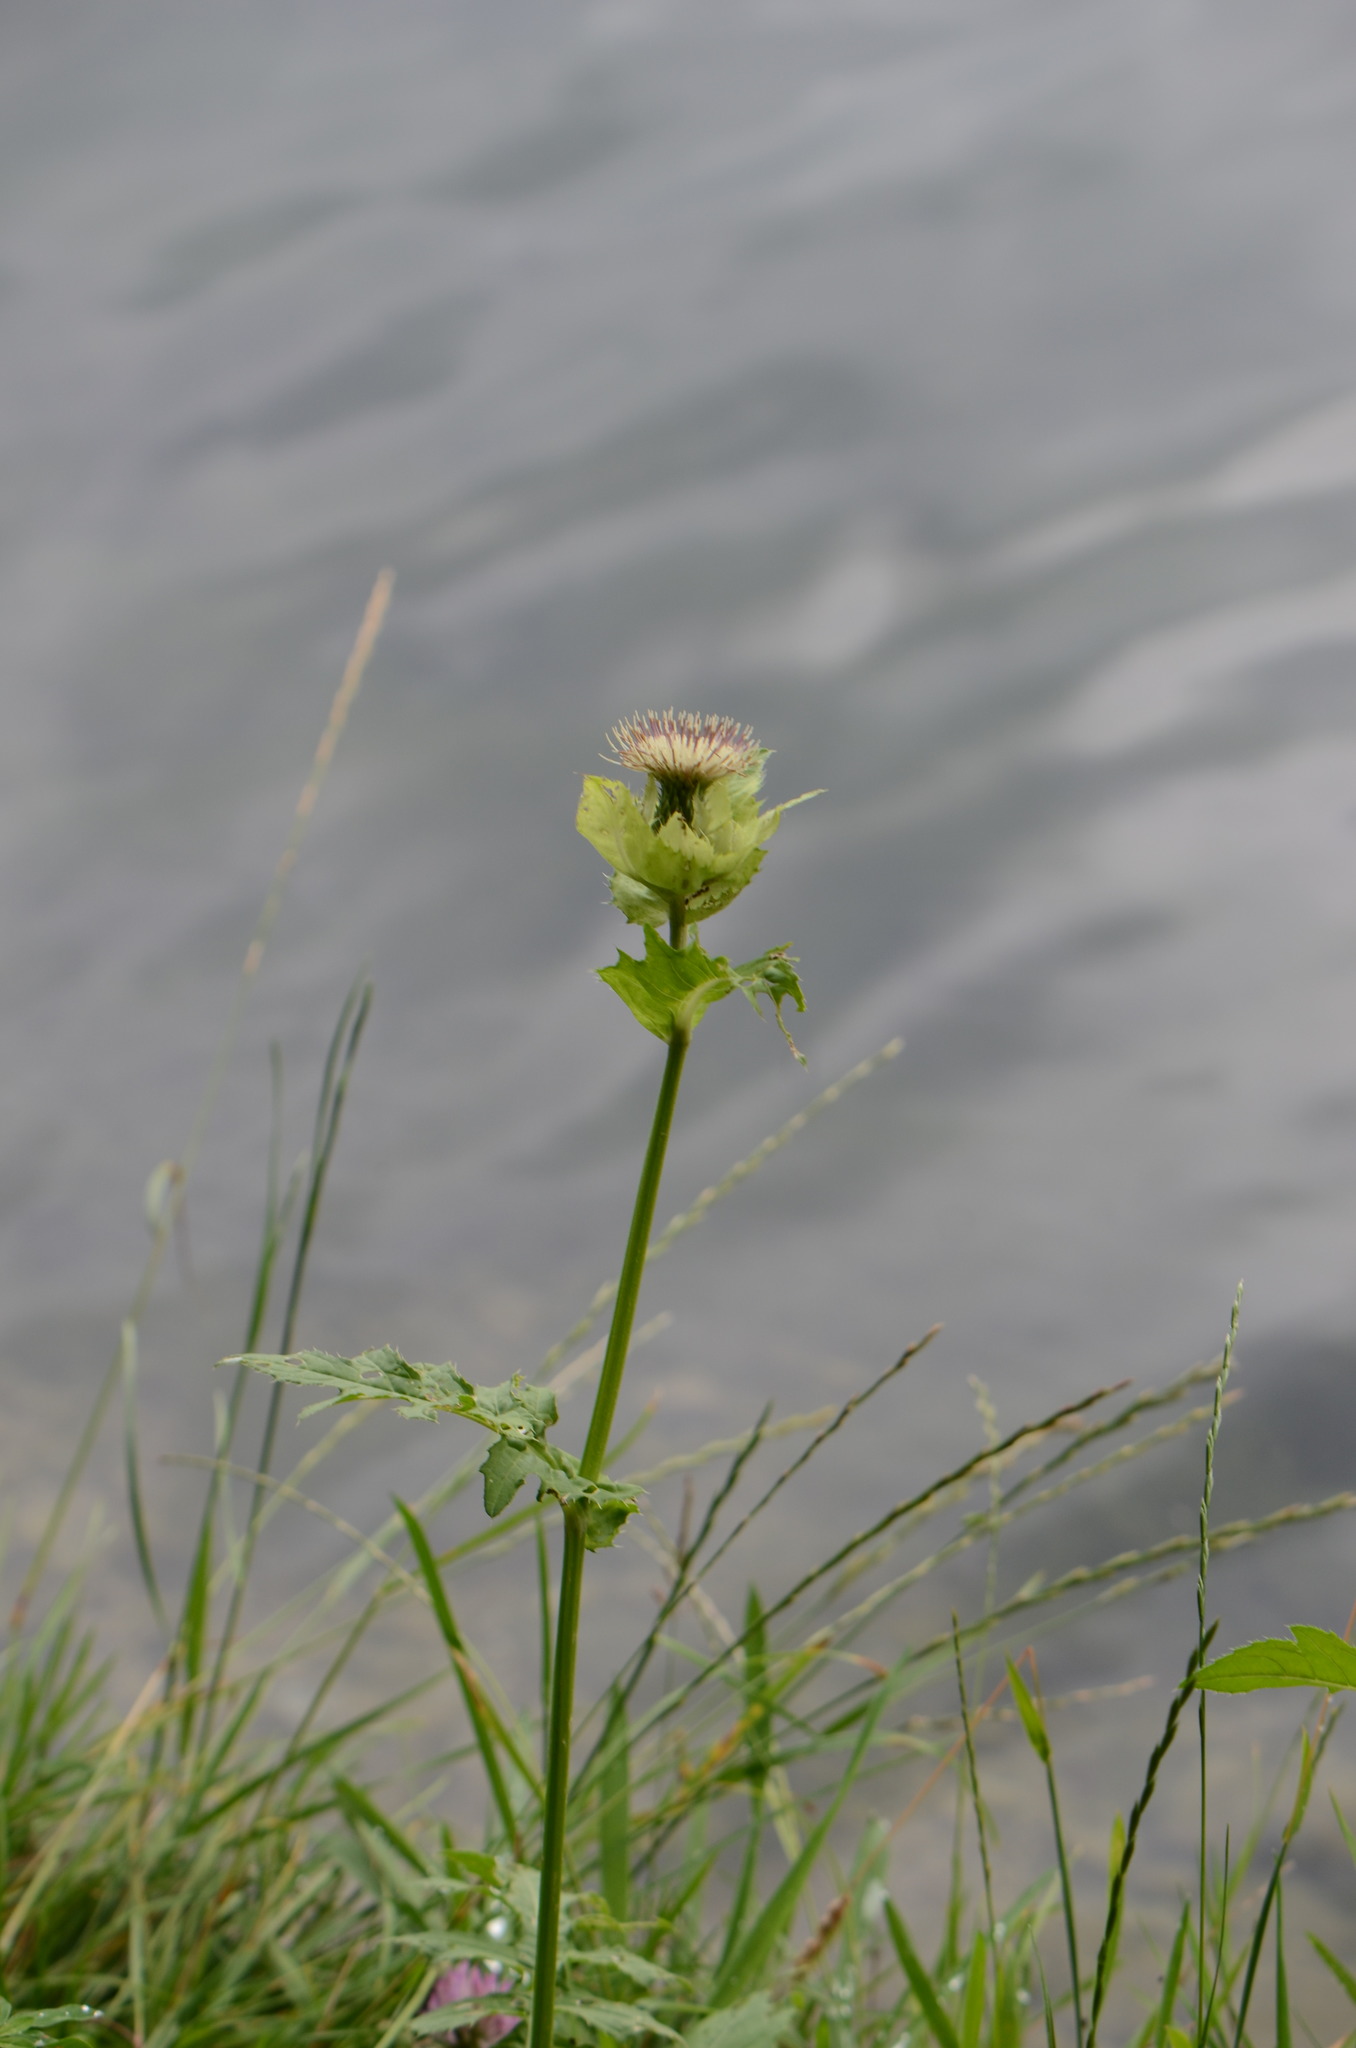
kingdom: Plantae
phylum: Tracheophyta
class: Magnoliopsida
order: Asterales
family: Asteraceae
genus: Cirsium
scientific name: Cirsium oleraceum
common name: Cabbage thistle
